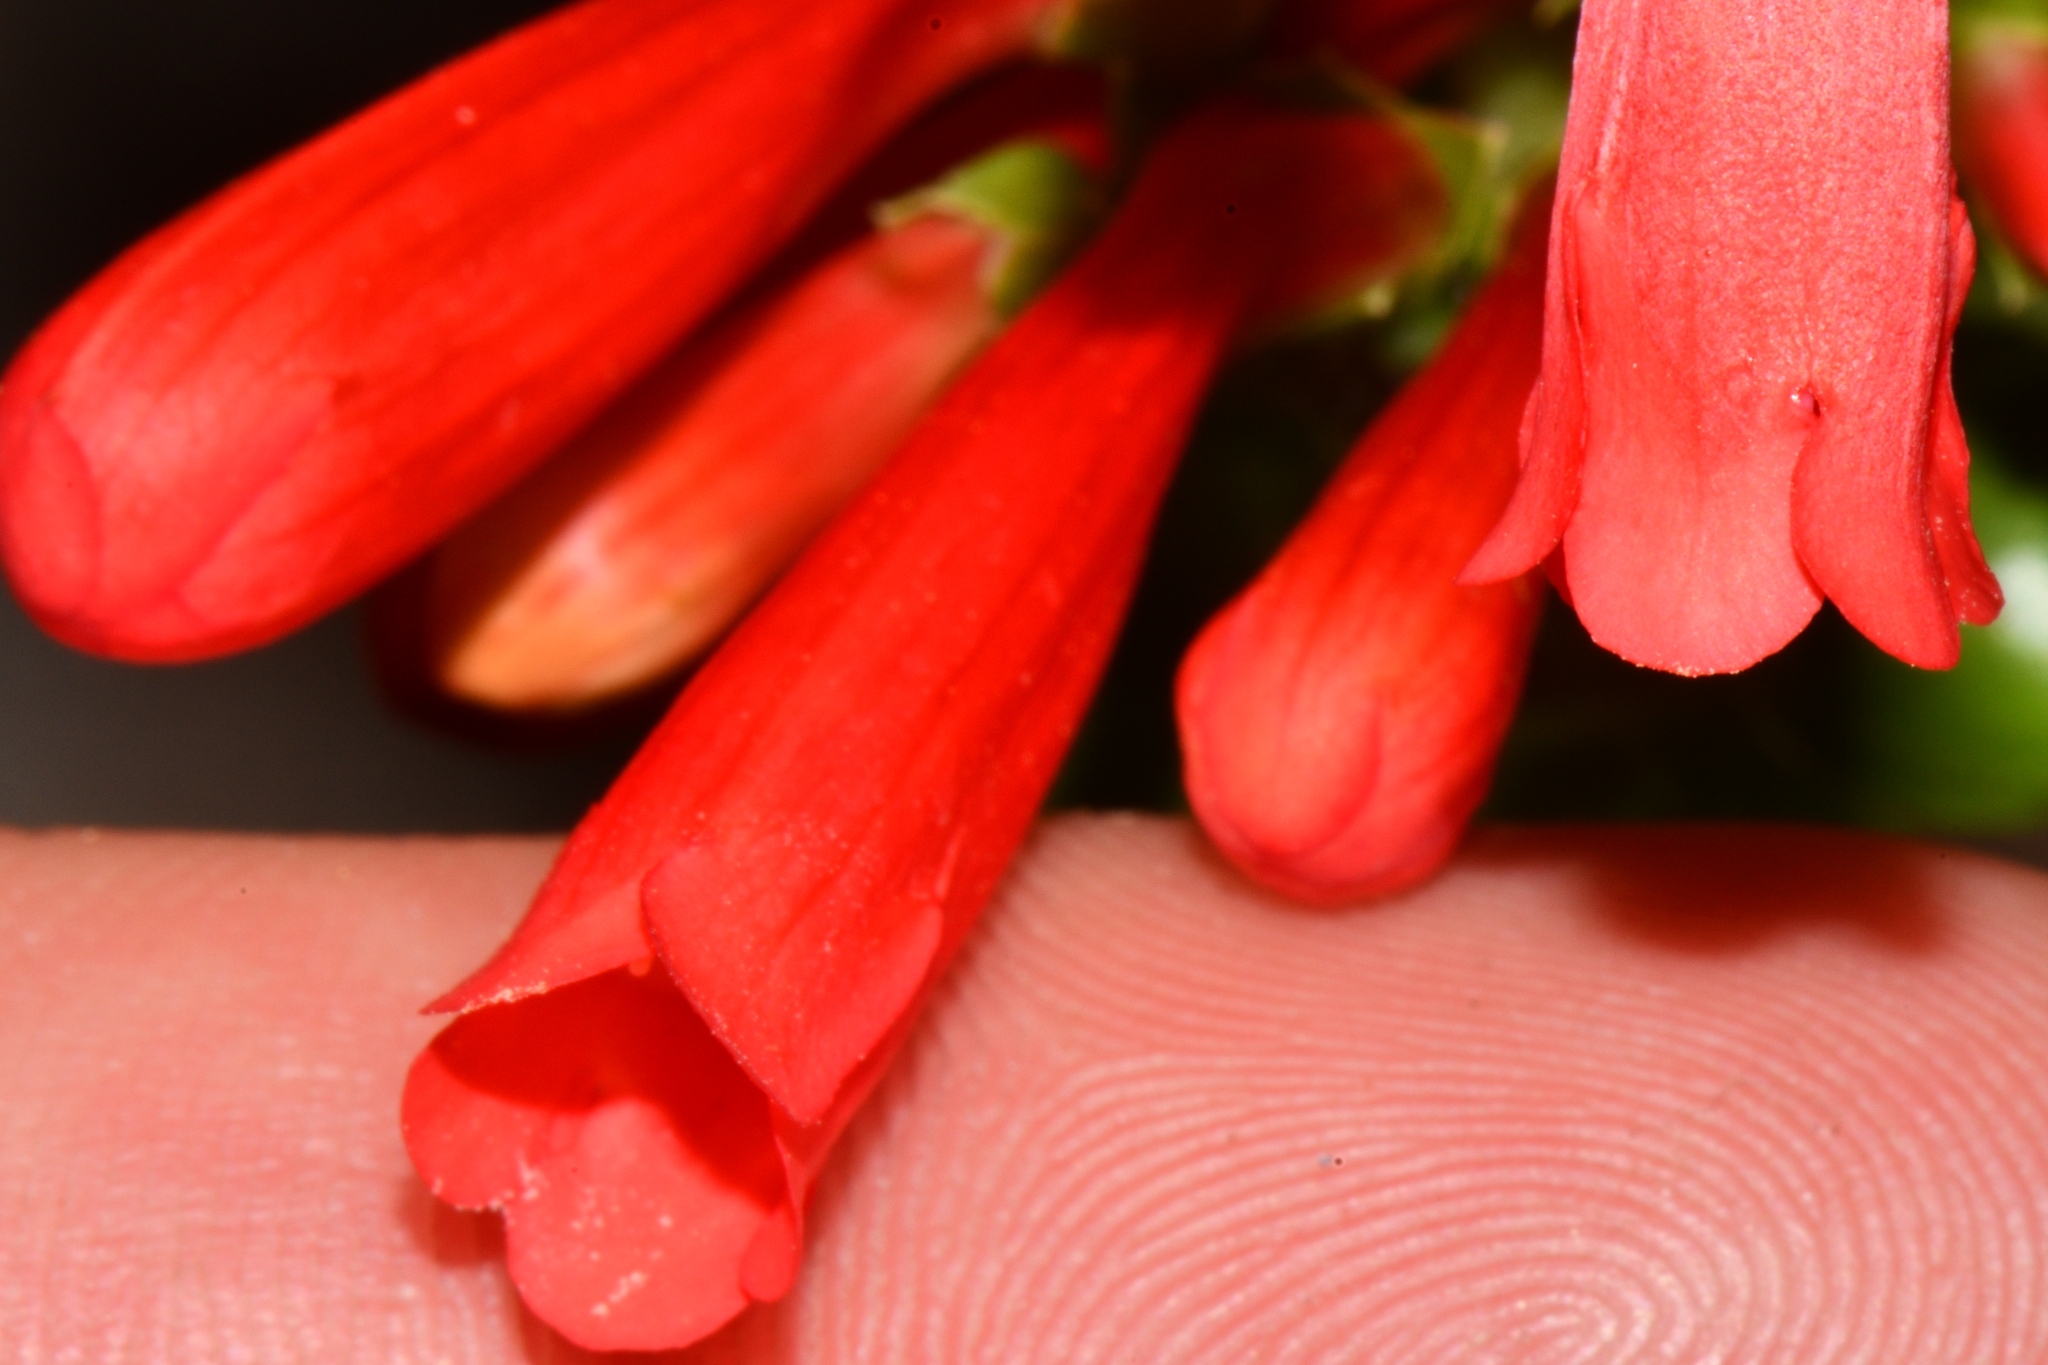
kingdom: Plantae
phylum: Tracheophyta
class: Magnoliopsida
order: Lamiales
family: Plantaginaceae
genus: Penstemon
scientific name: Penstemon eatonii
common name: Eaton's penstemon
